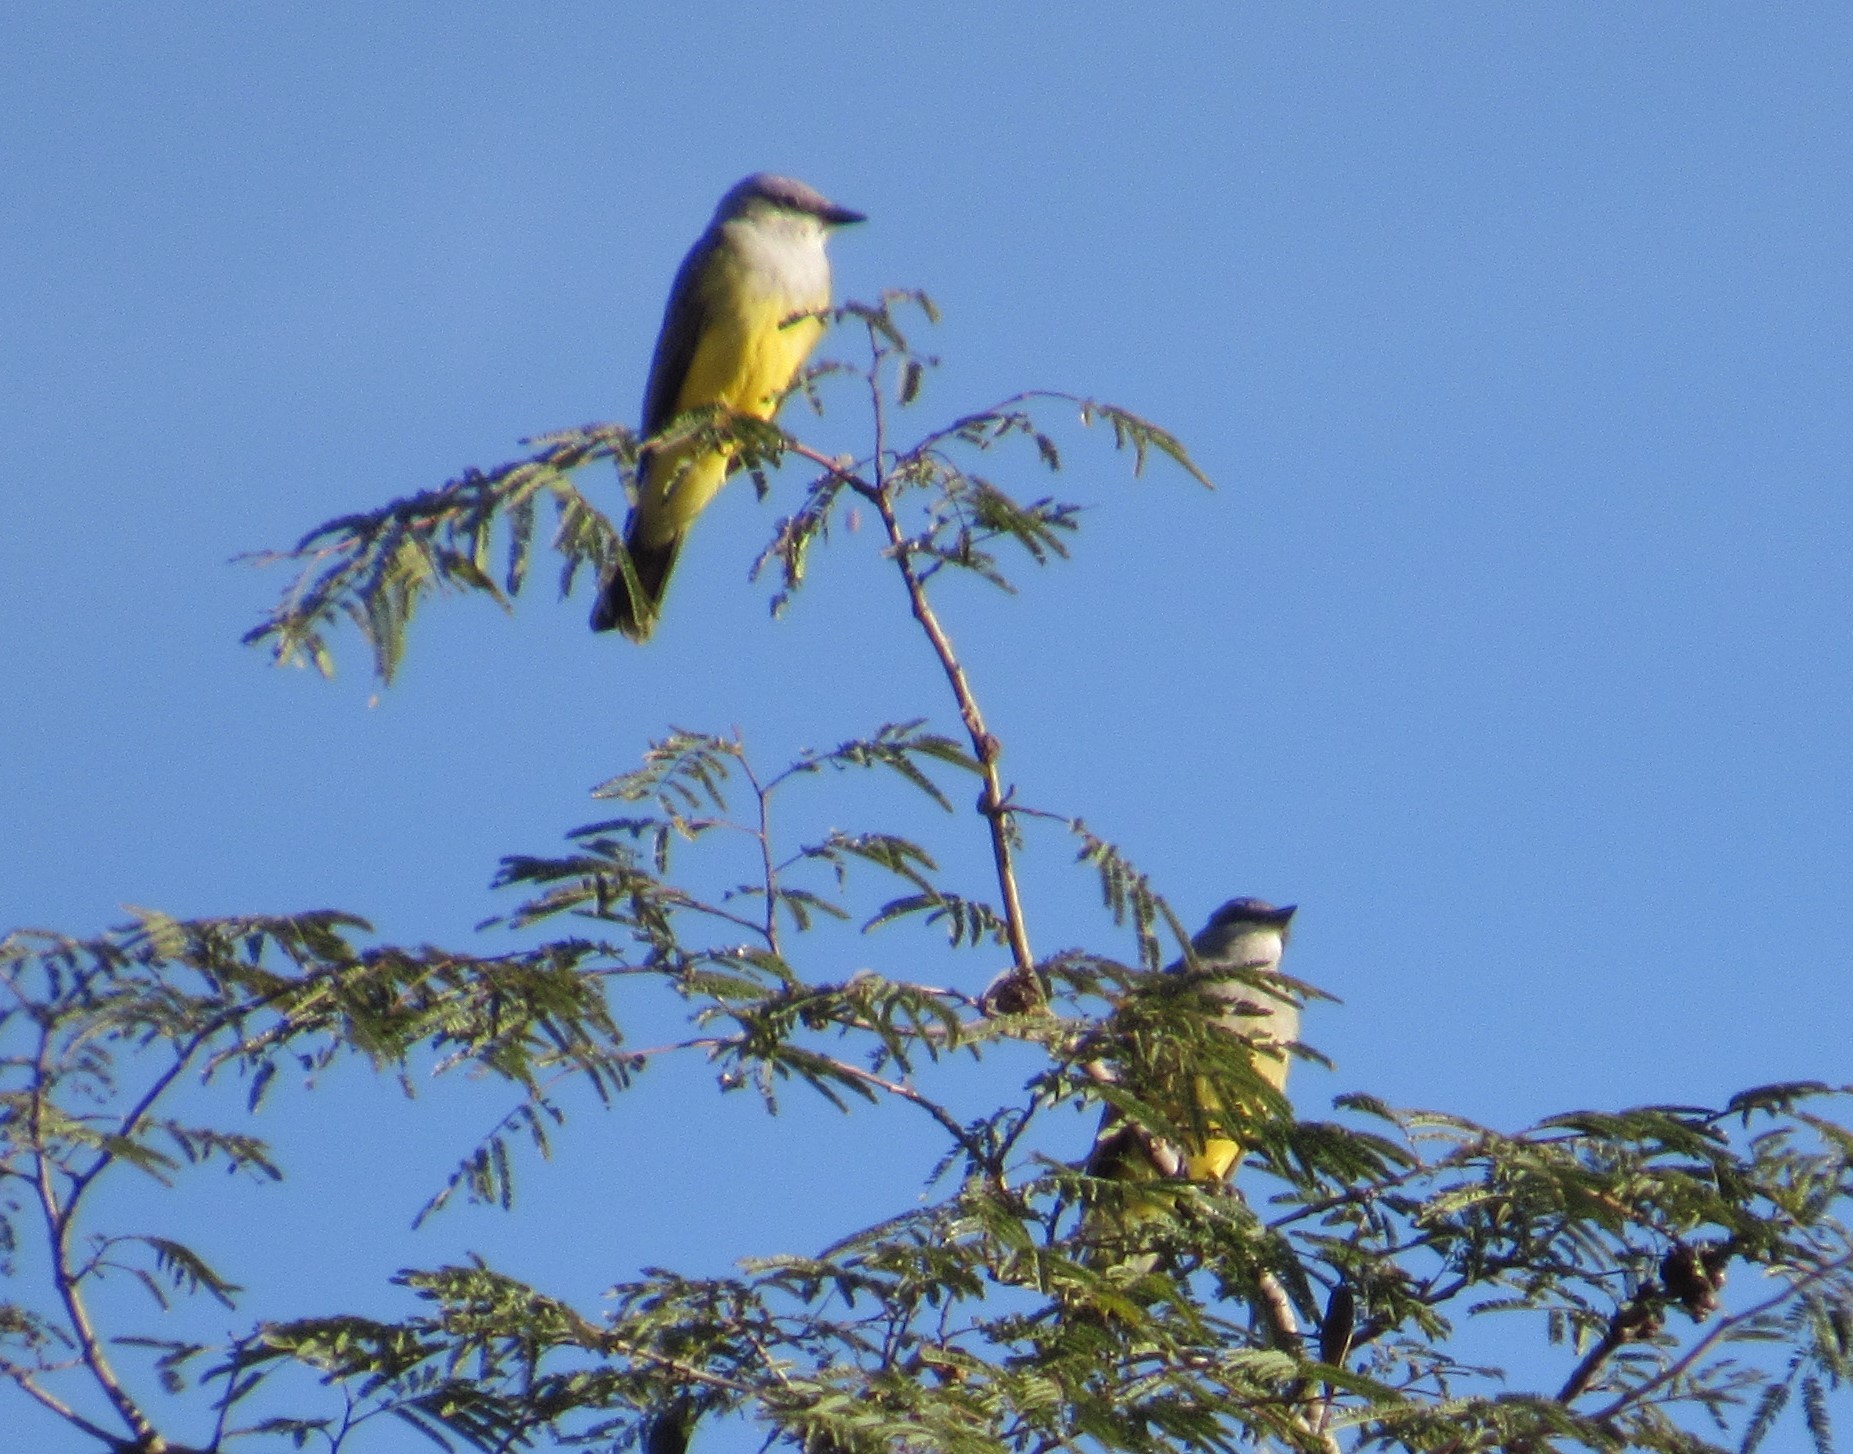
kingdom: Animalia
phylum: Chordata
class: Aves
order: Passeriformes
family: Tyrannidae
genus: Tyrannus
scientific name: Tyrannus verticalis
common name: Western kingbird
